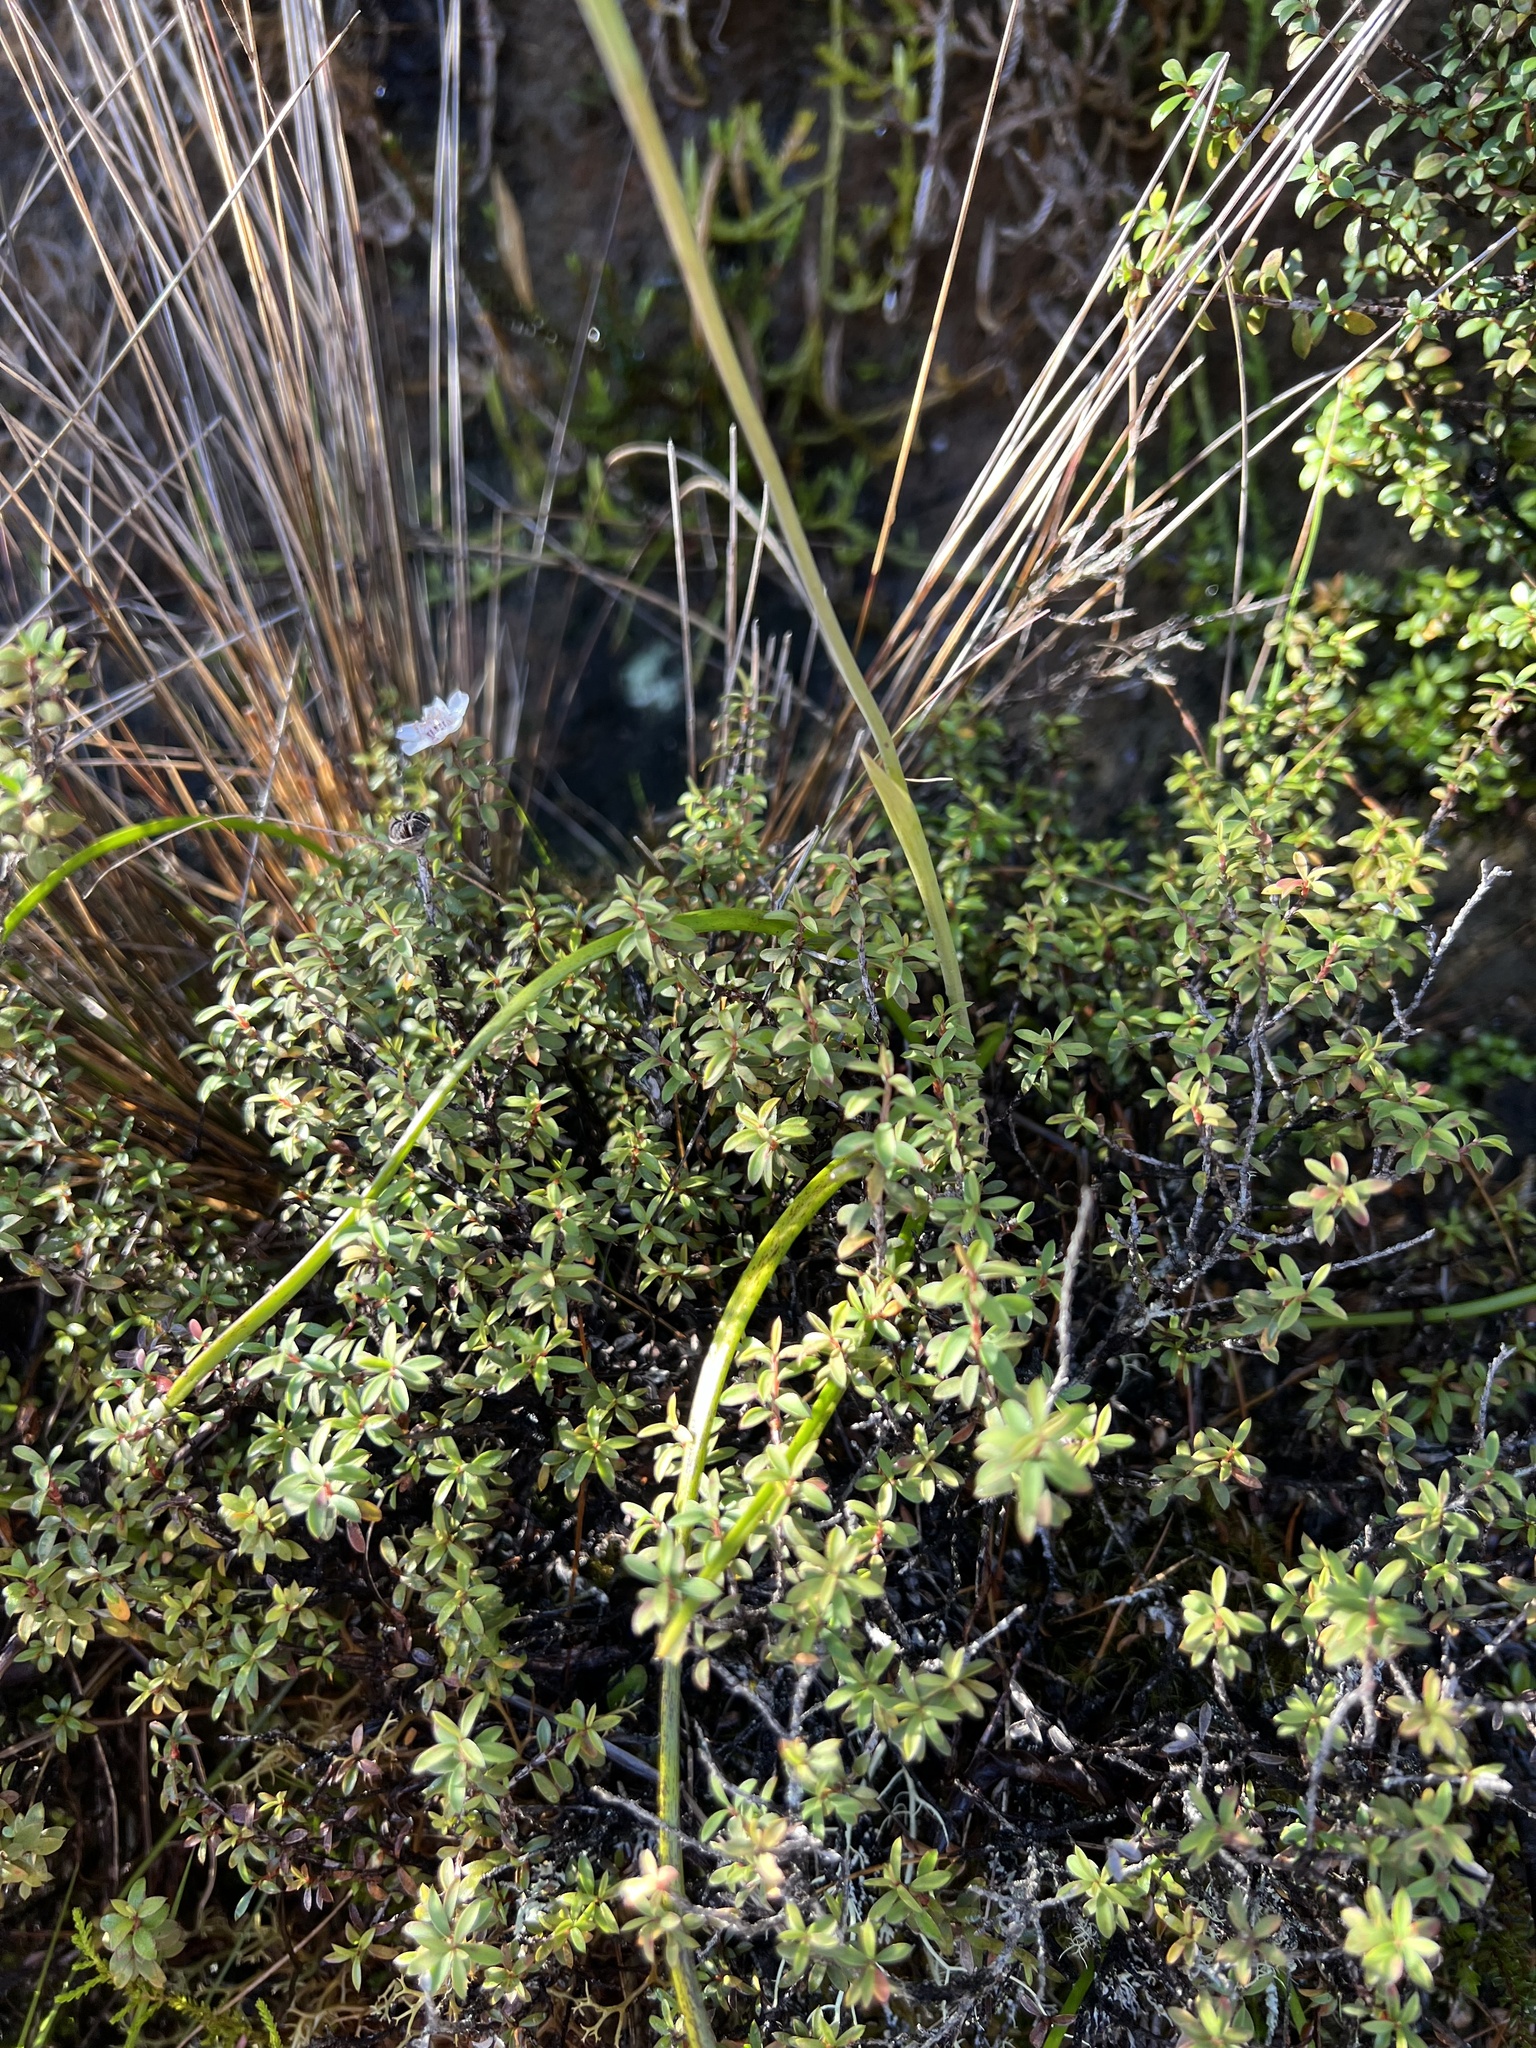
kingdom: Plantae
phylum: Tracheophyta
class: Liliopsida
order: Asparagales
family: Orchidaceae
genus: Thelymitra
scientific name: Thelymitra cyanea
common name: Blue sun-orchid
